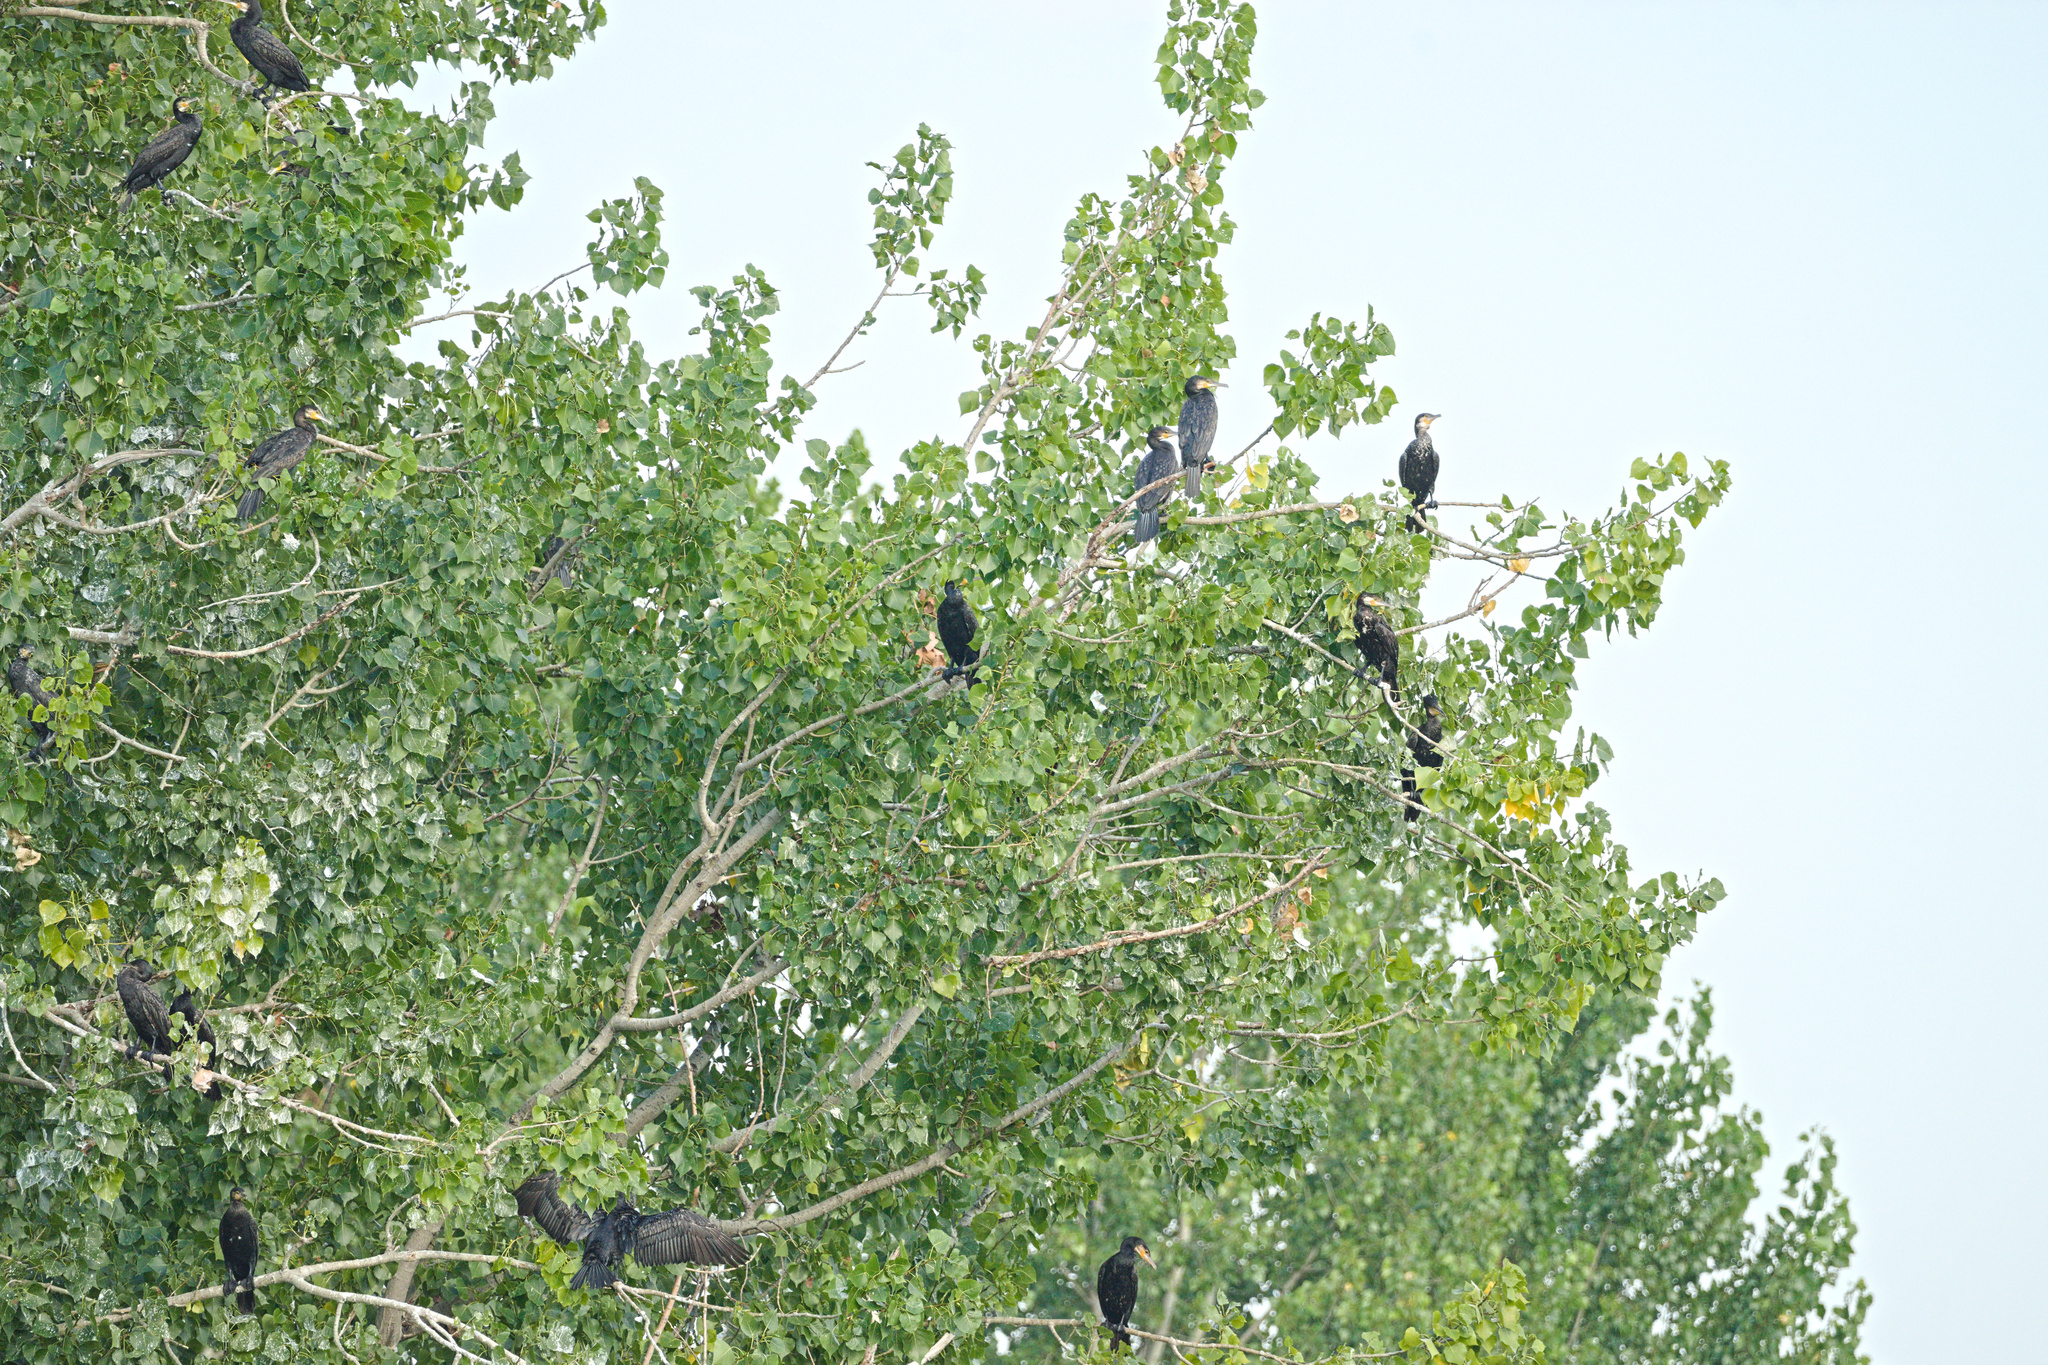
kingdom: Animalia
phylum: Chordata
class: Aves
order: Suliformes
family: Phalacrocoracidae
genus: Phalacrocorax
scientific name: Phalacrocorax carbo
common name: Great cormorant
